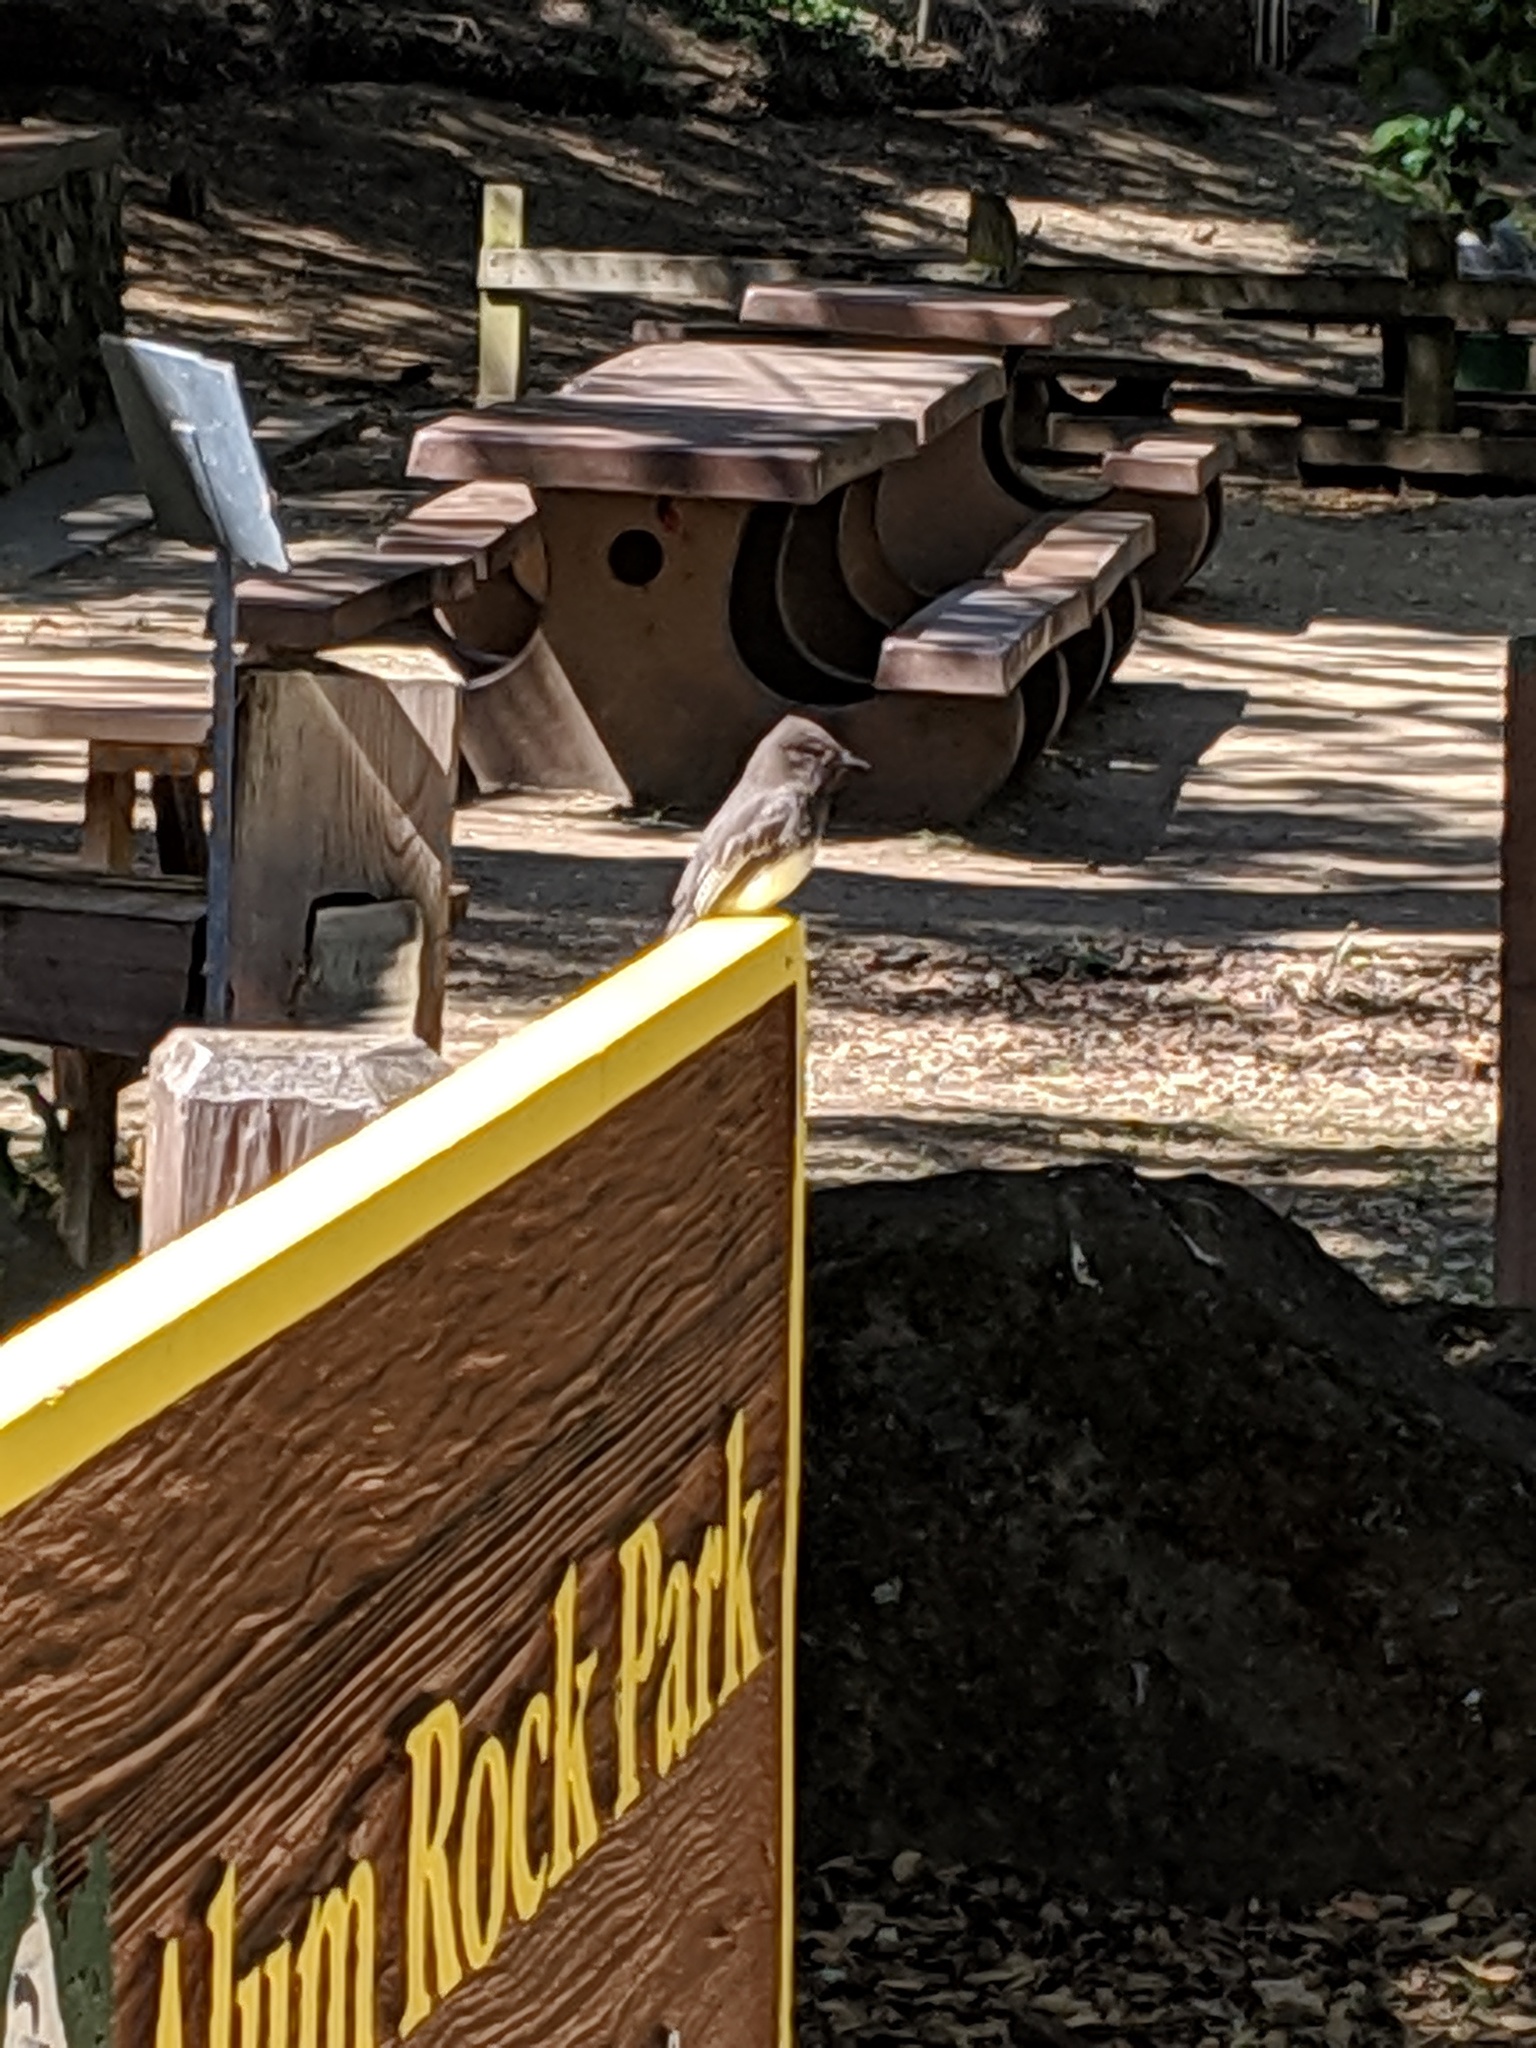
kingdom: Animalia
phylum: Chordata
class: Aves
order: Passeriformes
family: Tyrannidae
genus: Sayornis
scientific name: Sayornis nigricans
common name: Black phoebe
